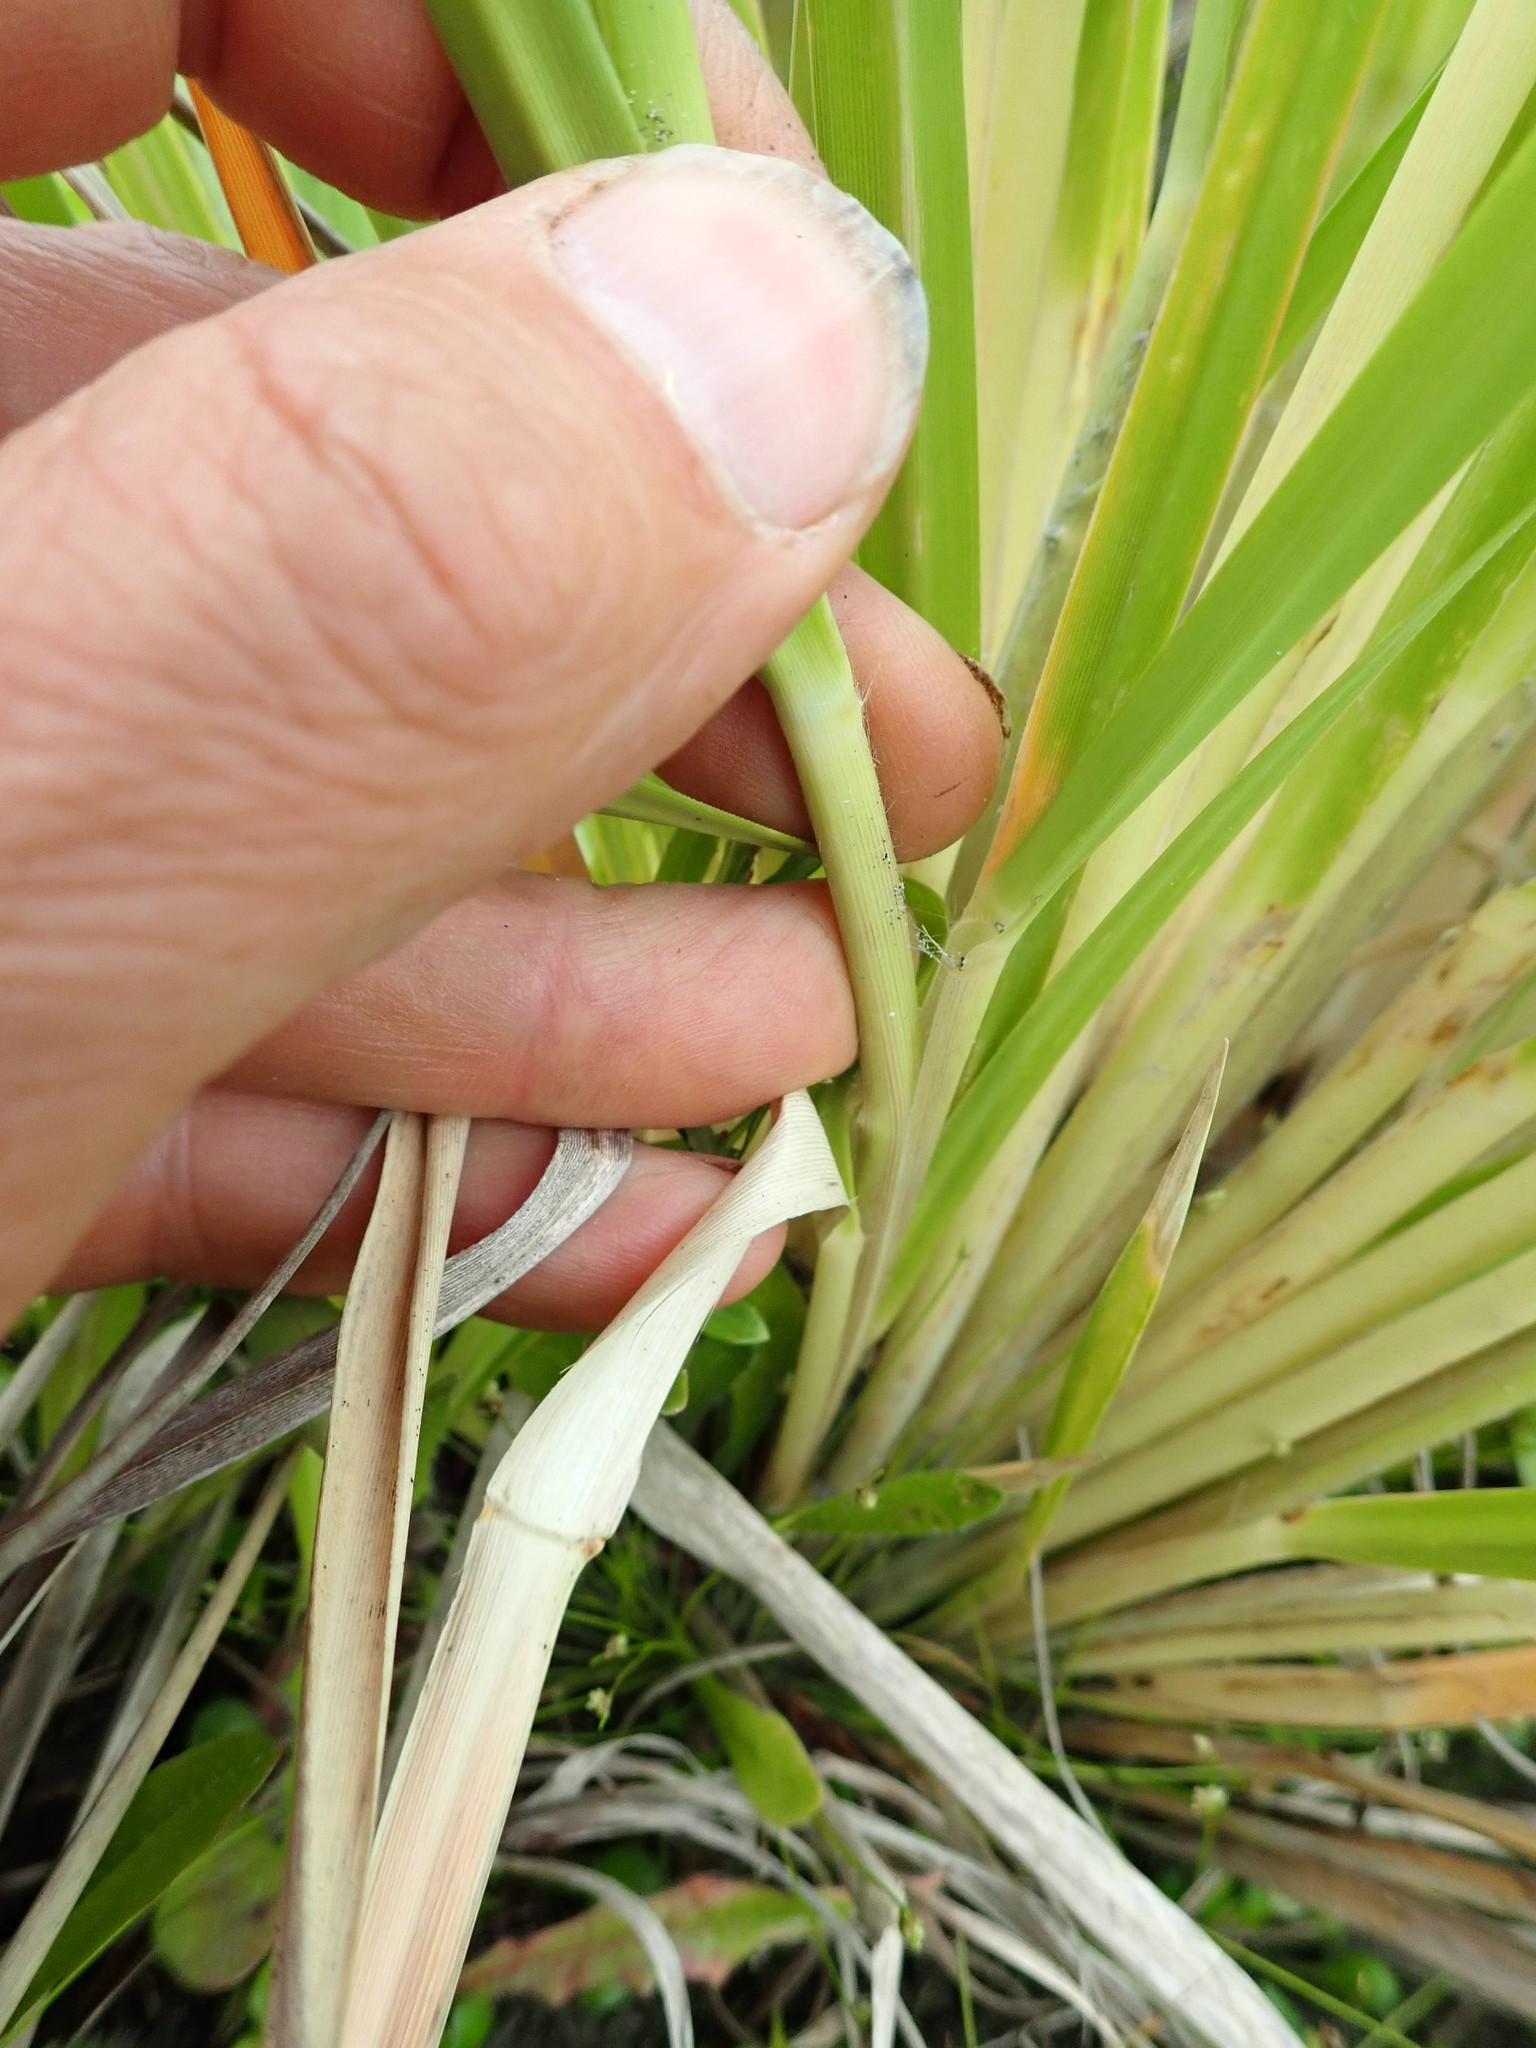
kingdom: Plantae
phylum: Tracheophyta
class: Liliopsida
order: Poales
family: Poaceae
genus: Cortaderia
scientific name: Cortaderia selloana
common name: Uruguayan pampas grass
